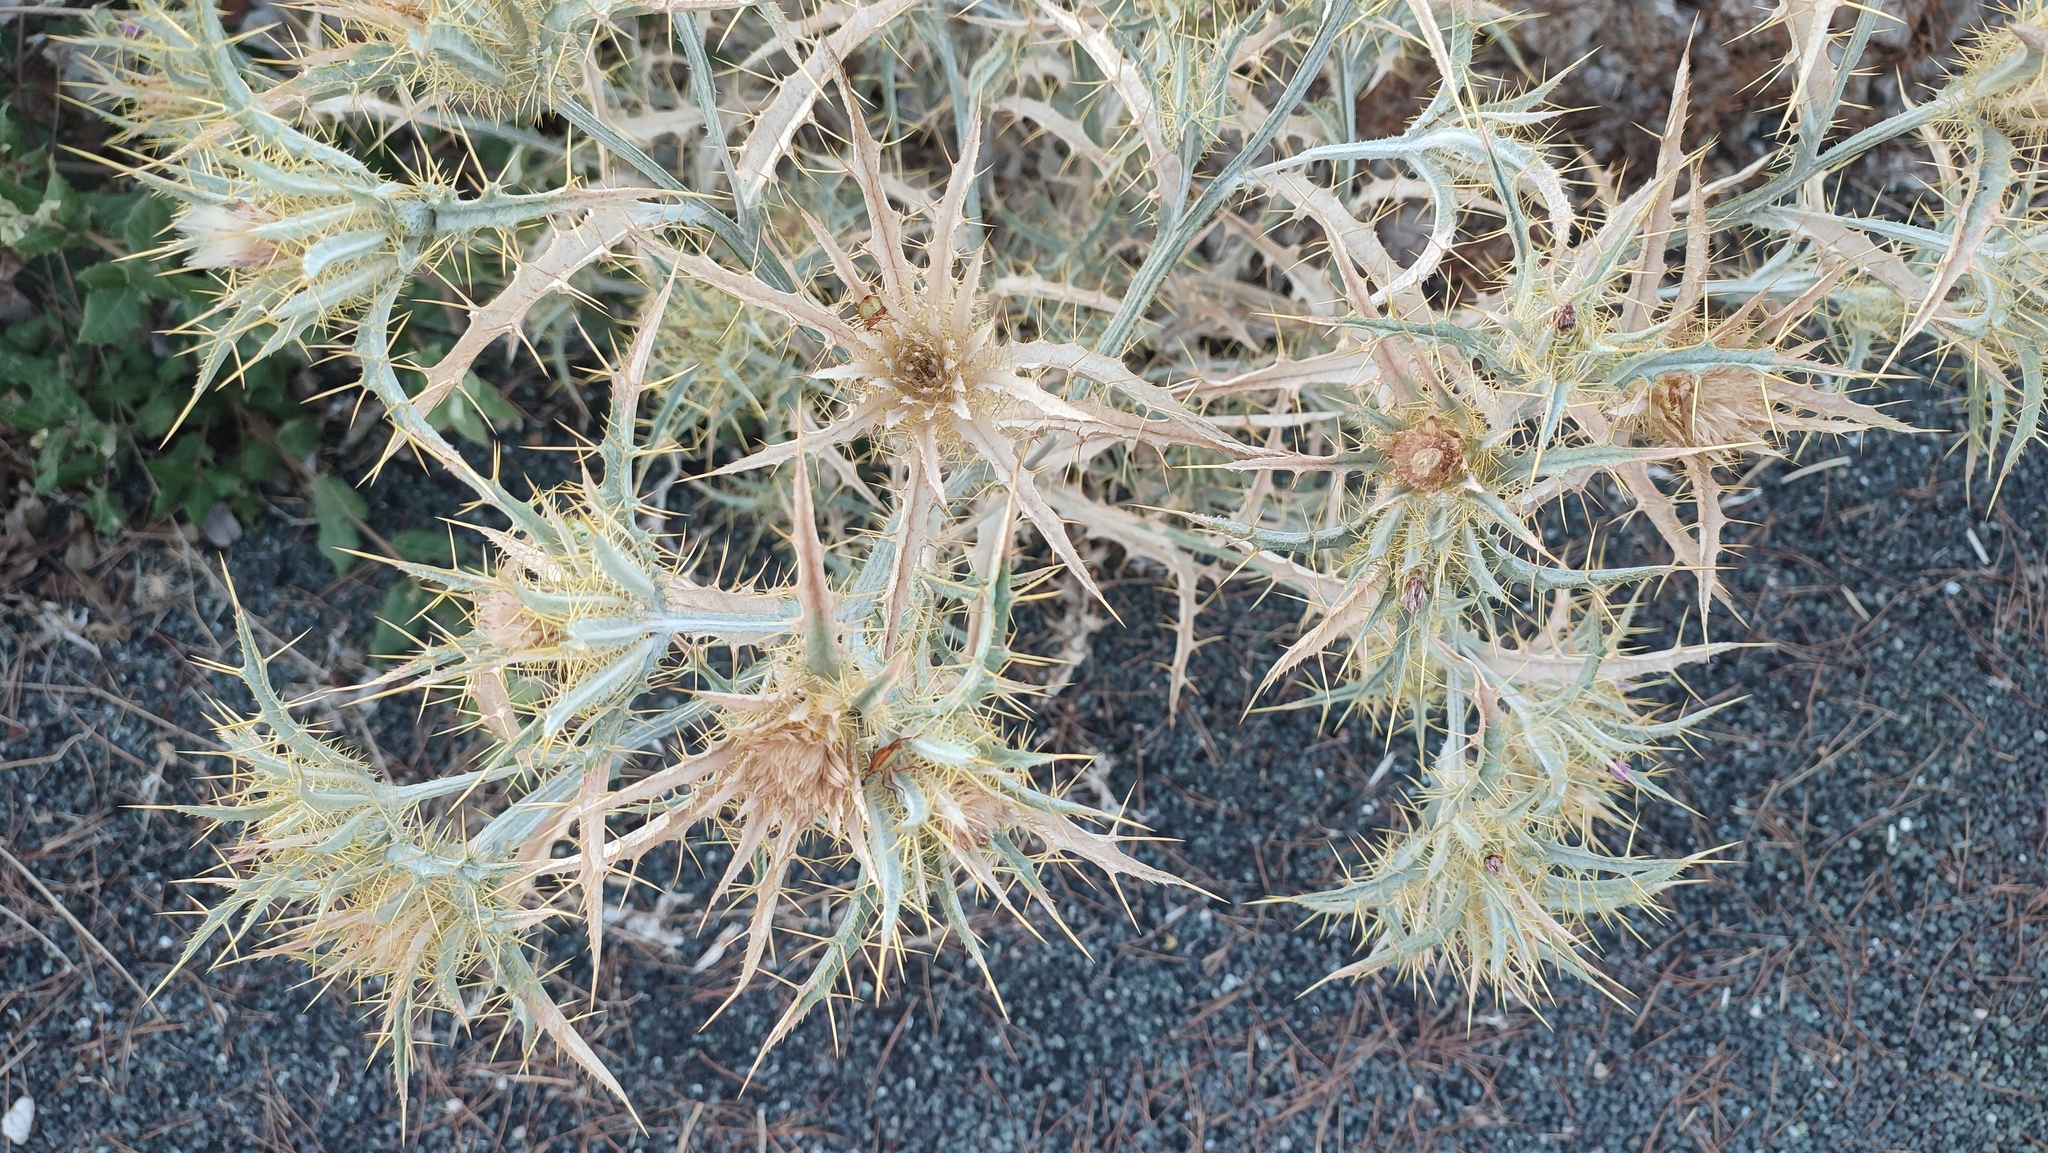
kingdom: Plantae
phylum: Tracheophyta
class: Magnoliopsida
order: Asterales
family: Asteraceae
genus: Picnomon
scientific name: Picnomon acarna
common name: Soldier thistle
